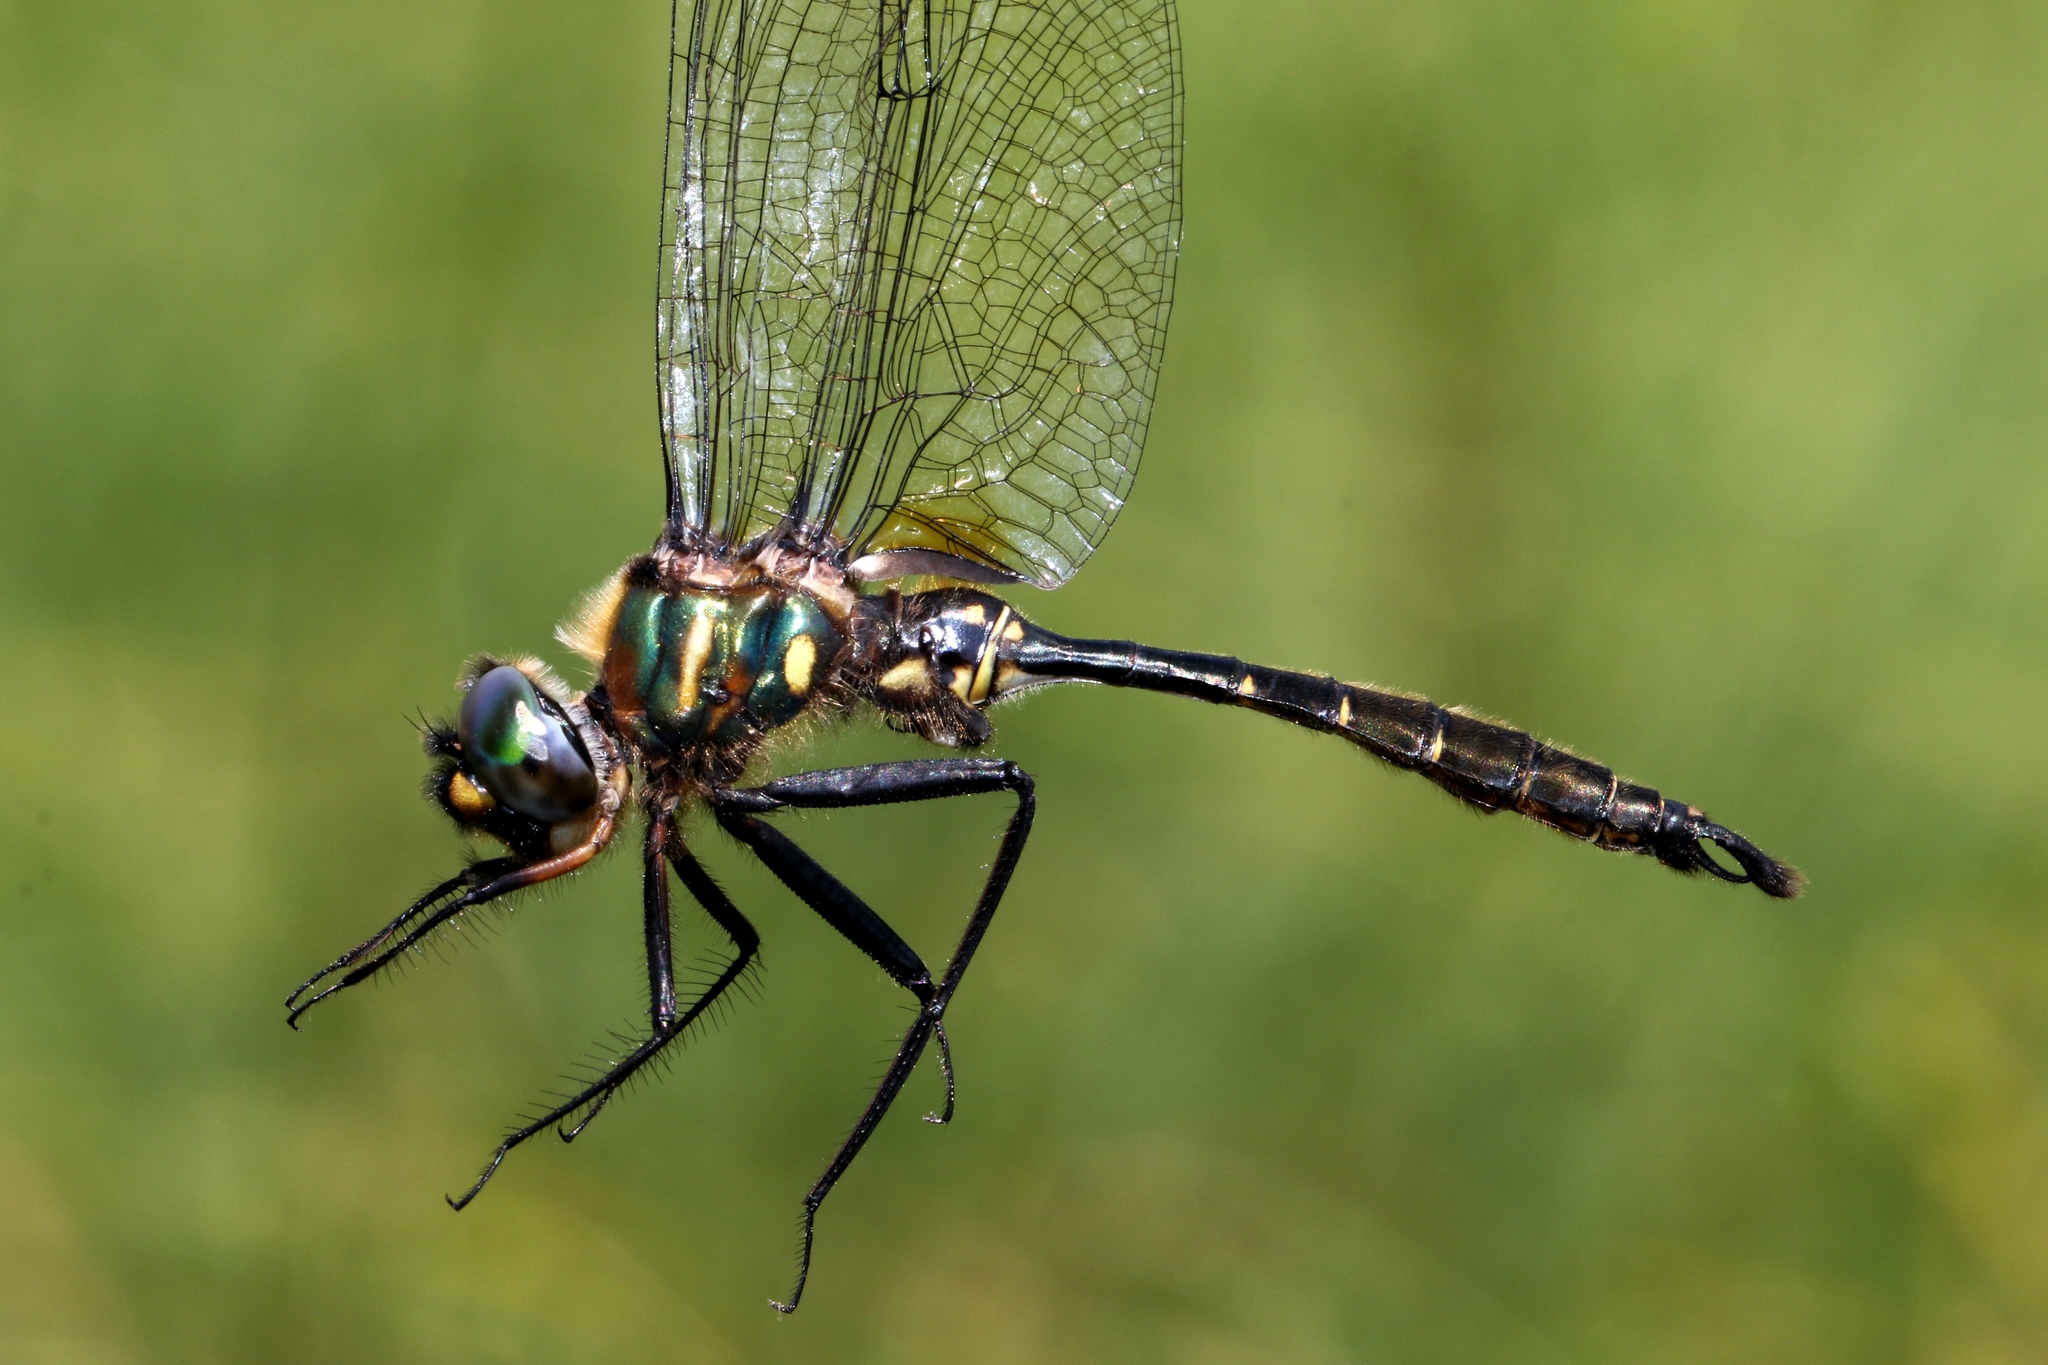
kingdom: Animalia
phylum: Arthropoda
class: Insecta
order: Odonata
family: Corduliidae
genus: Somatochlora
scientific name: Somatochlora walshii
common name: Brush-tipped emerald
